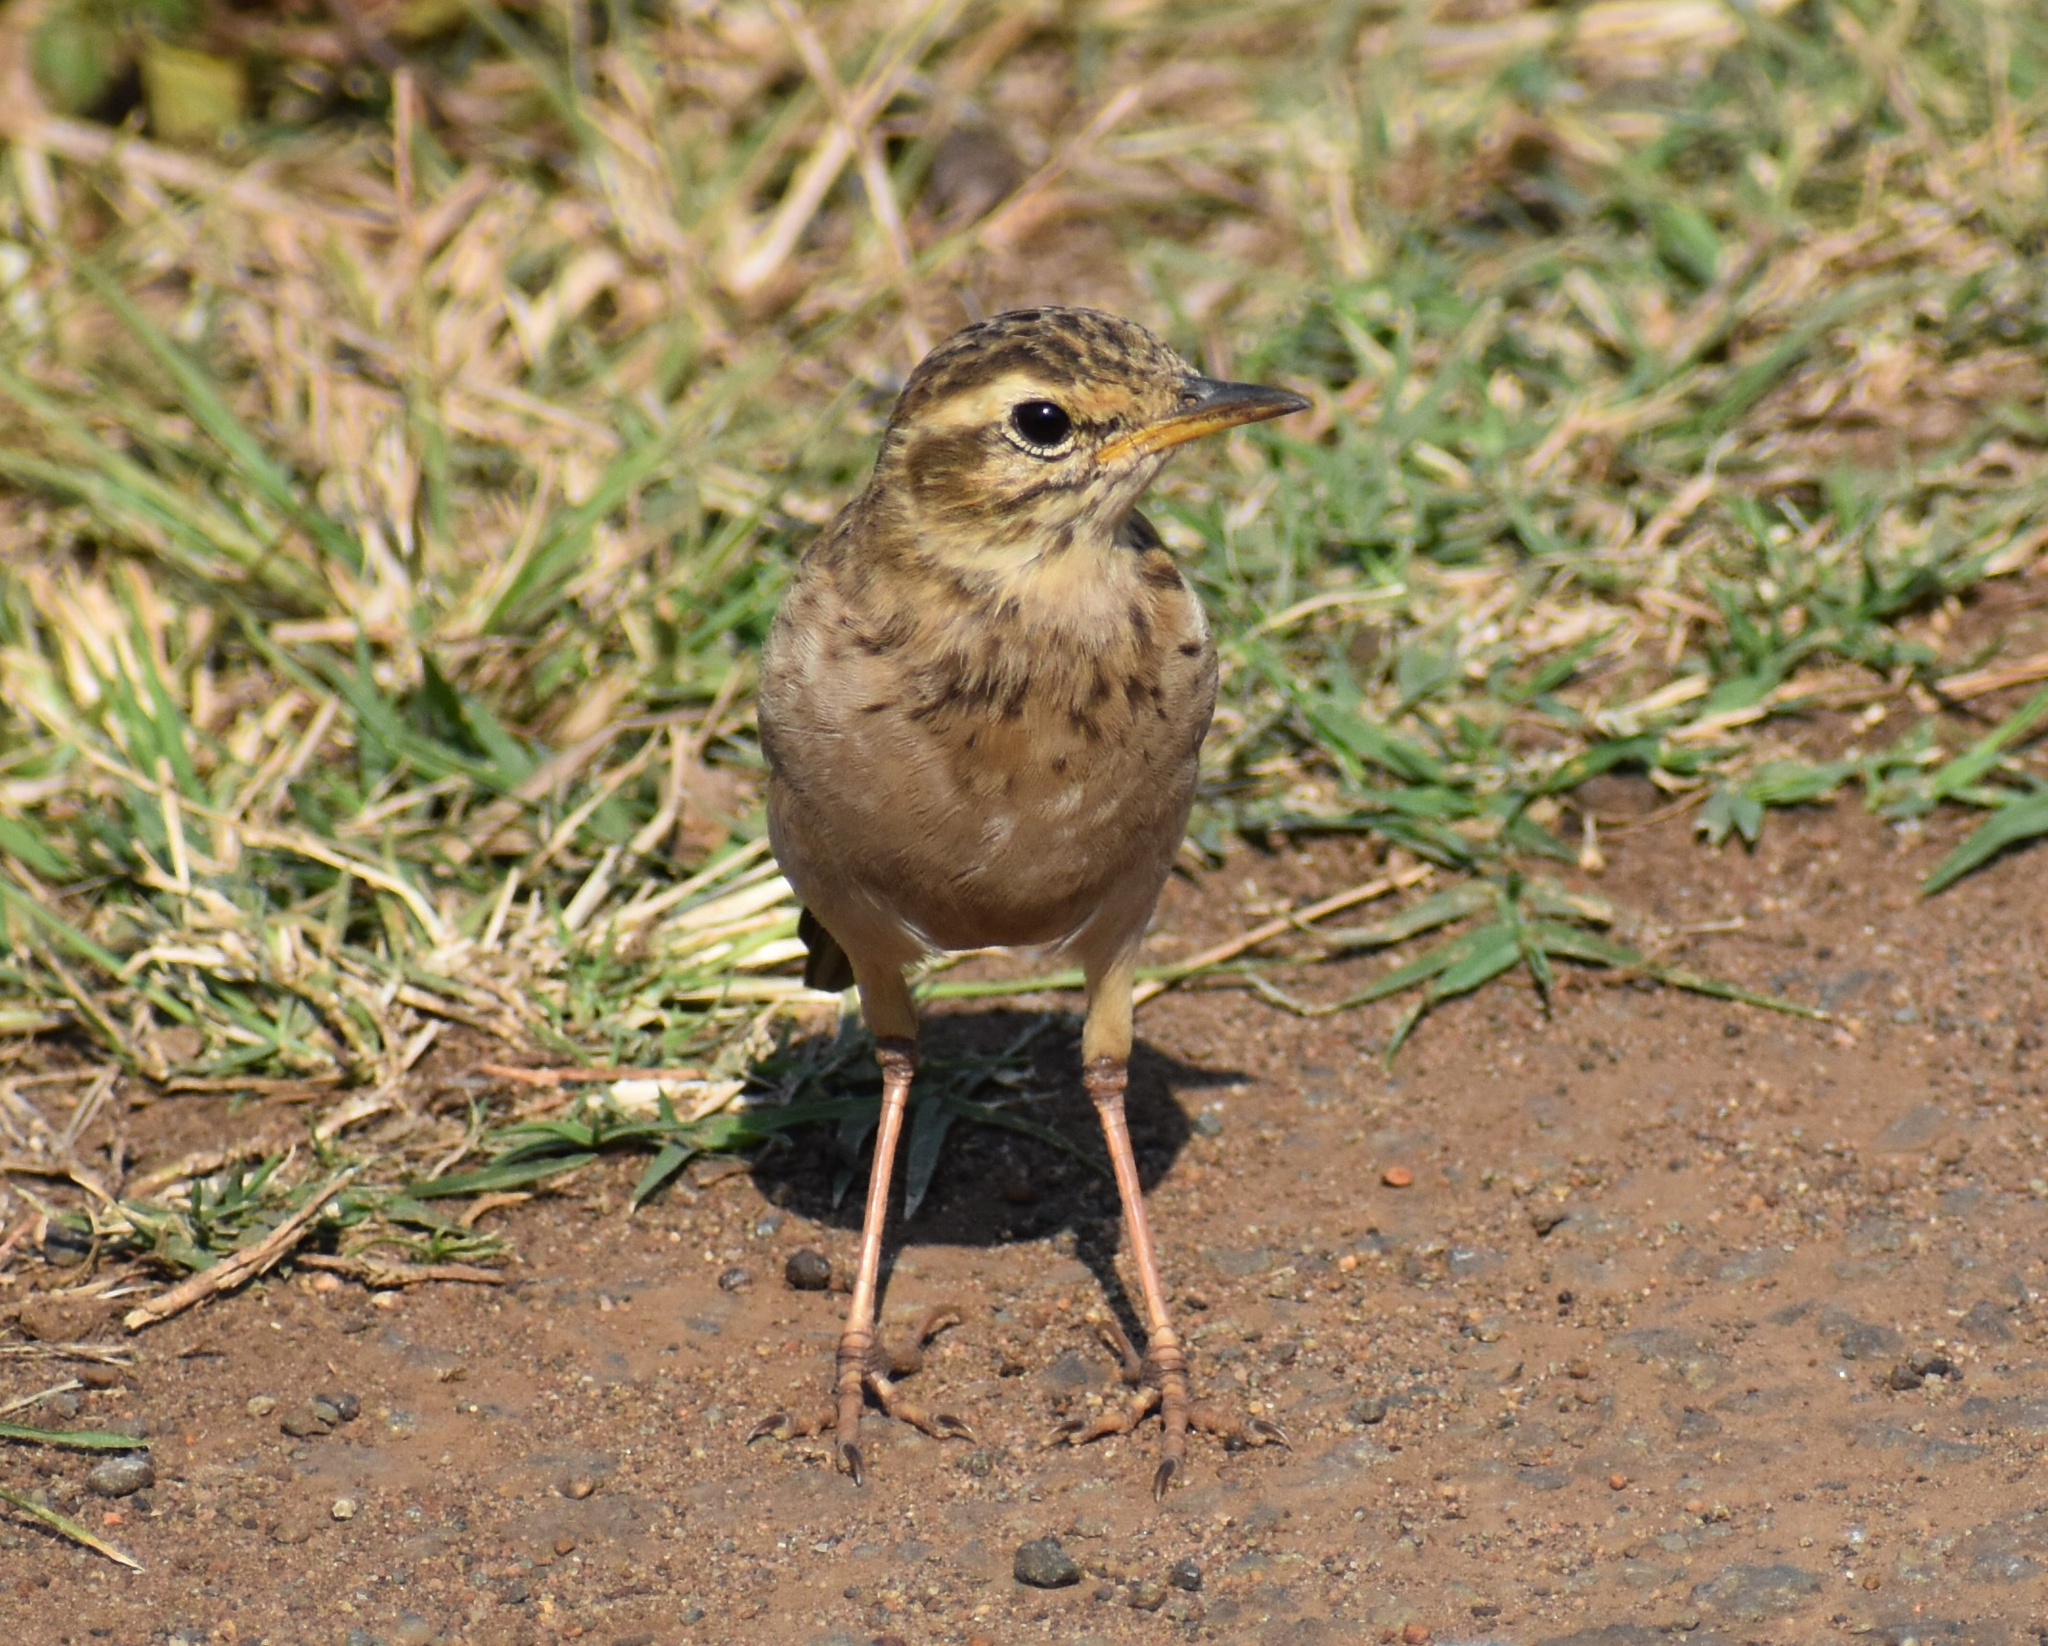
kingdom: Animalia
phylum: Chordata
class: Aves
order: Passeriformes
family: Motacillidae
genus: Anthus
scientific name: Anthus cinnamomeus
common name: African pipit
